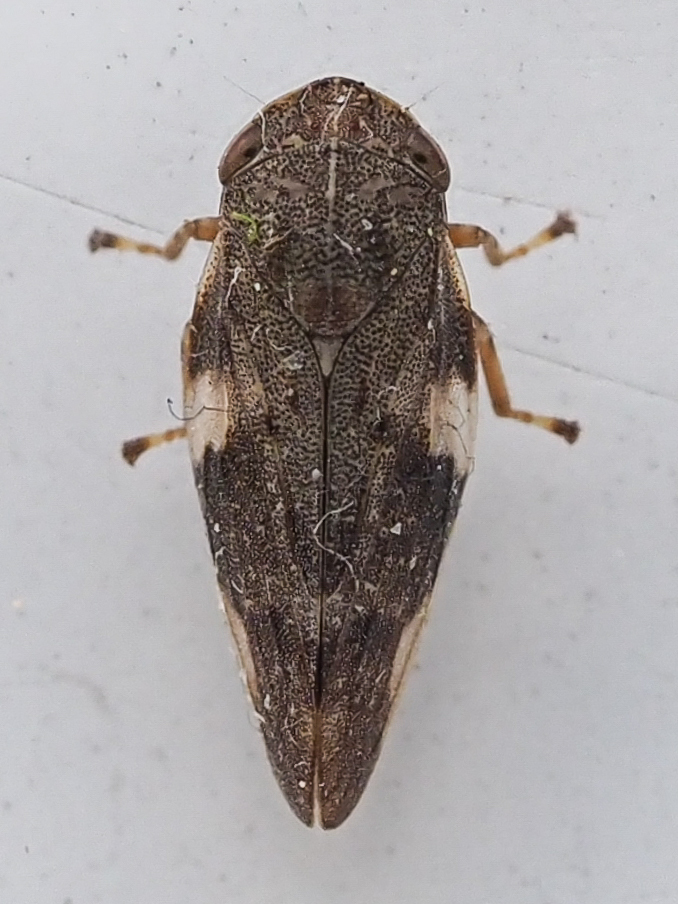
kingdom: Animalia
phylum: Arthropoda
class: Insecta
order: Hemiptera
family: Aphrophoridae
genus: Aphrophora
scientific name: Aphrophora alni
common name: European alder spittlebug
